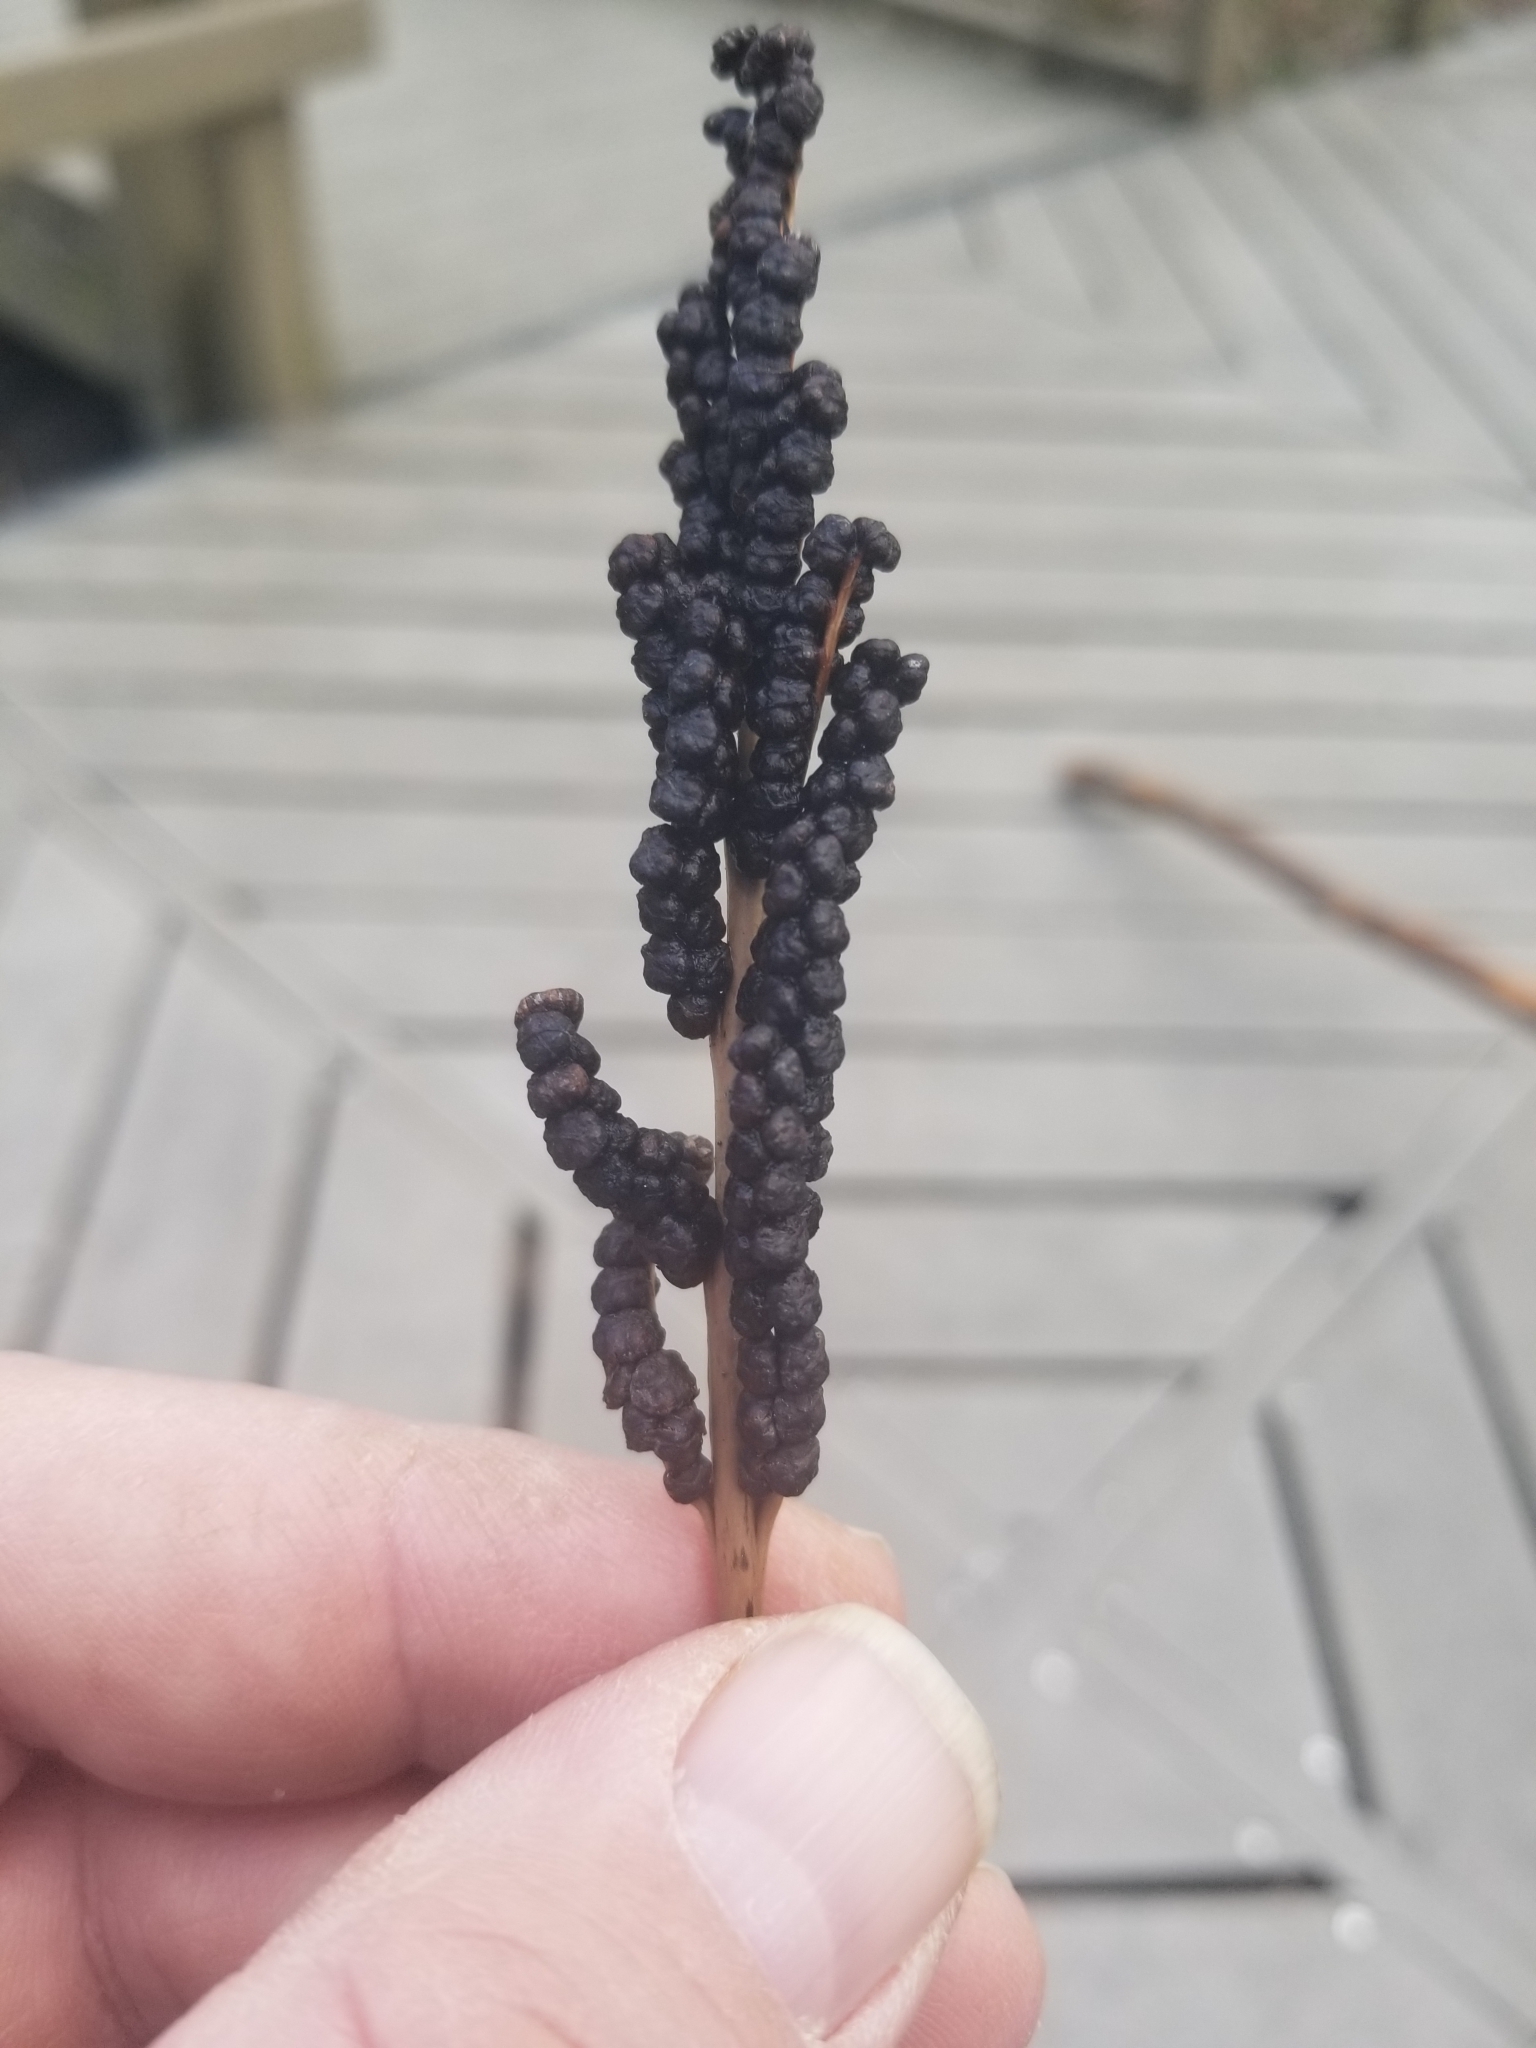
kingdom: Plantae
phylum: Tracheophyta
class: Polypodiopsida
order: Polypodiales
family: Onocleaceae
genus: Onoclea
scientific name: Onoclea sensibilis
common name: Sensitive fern
